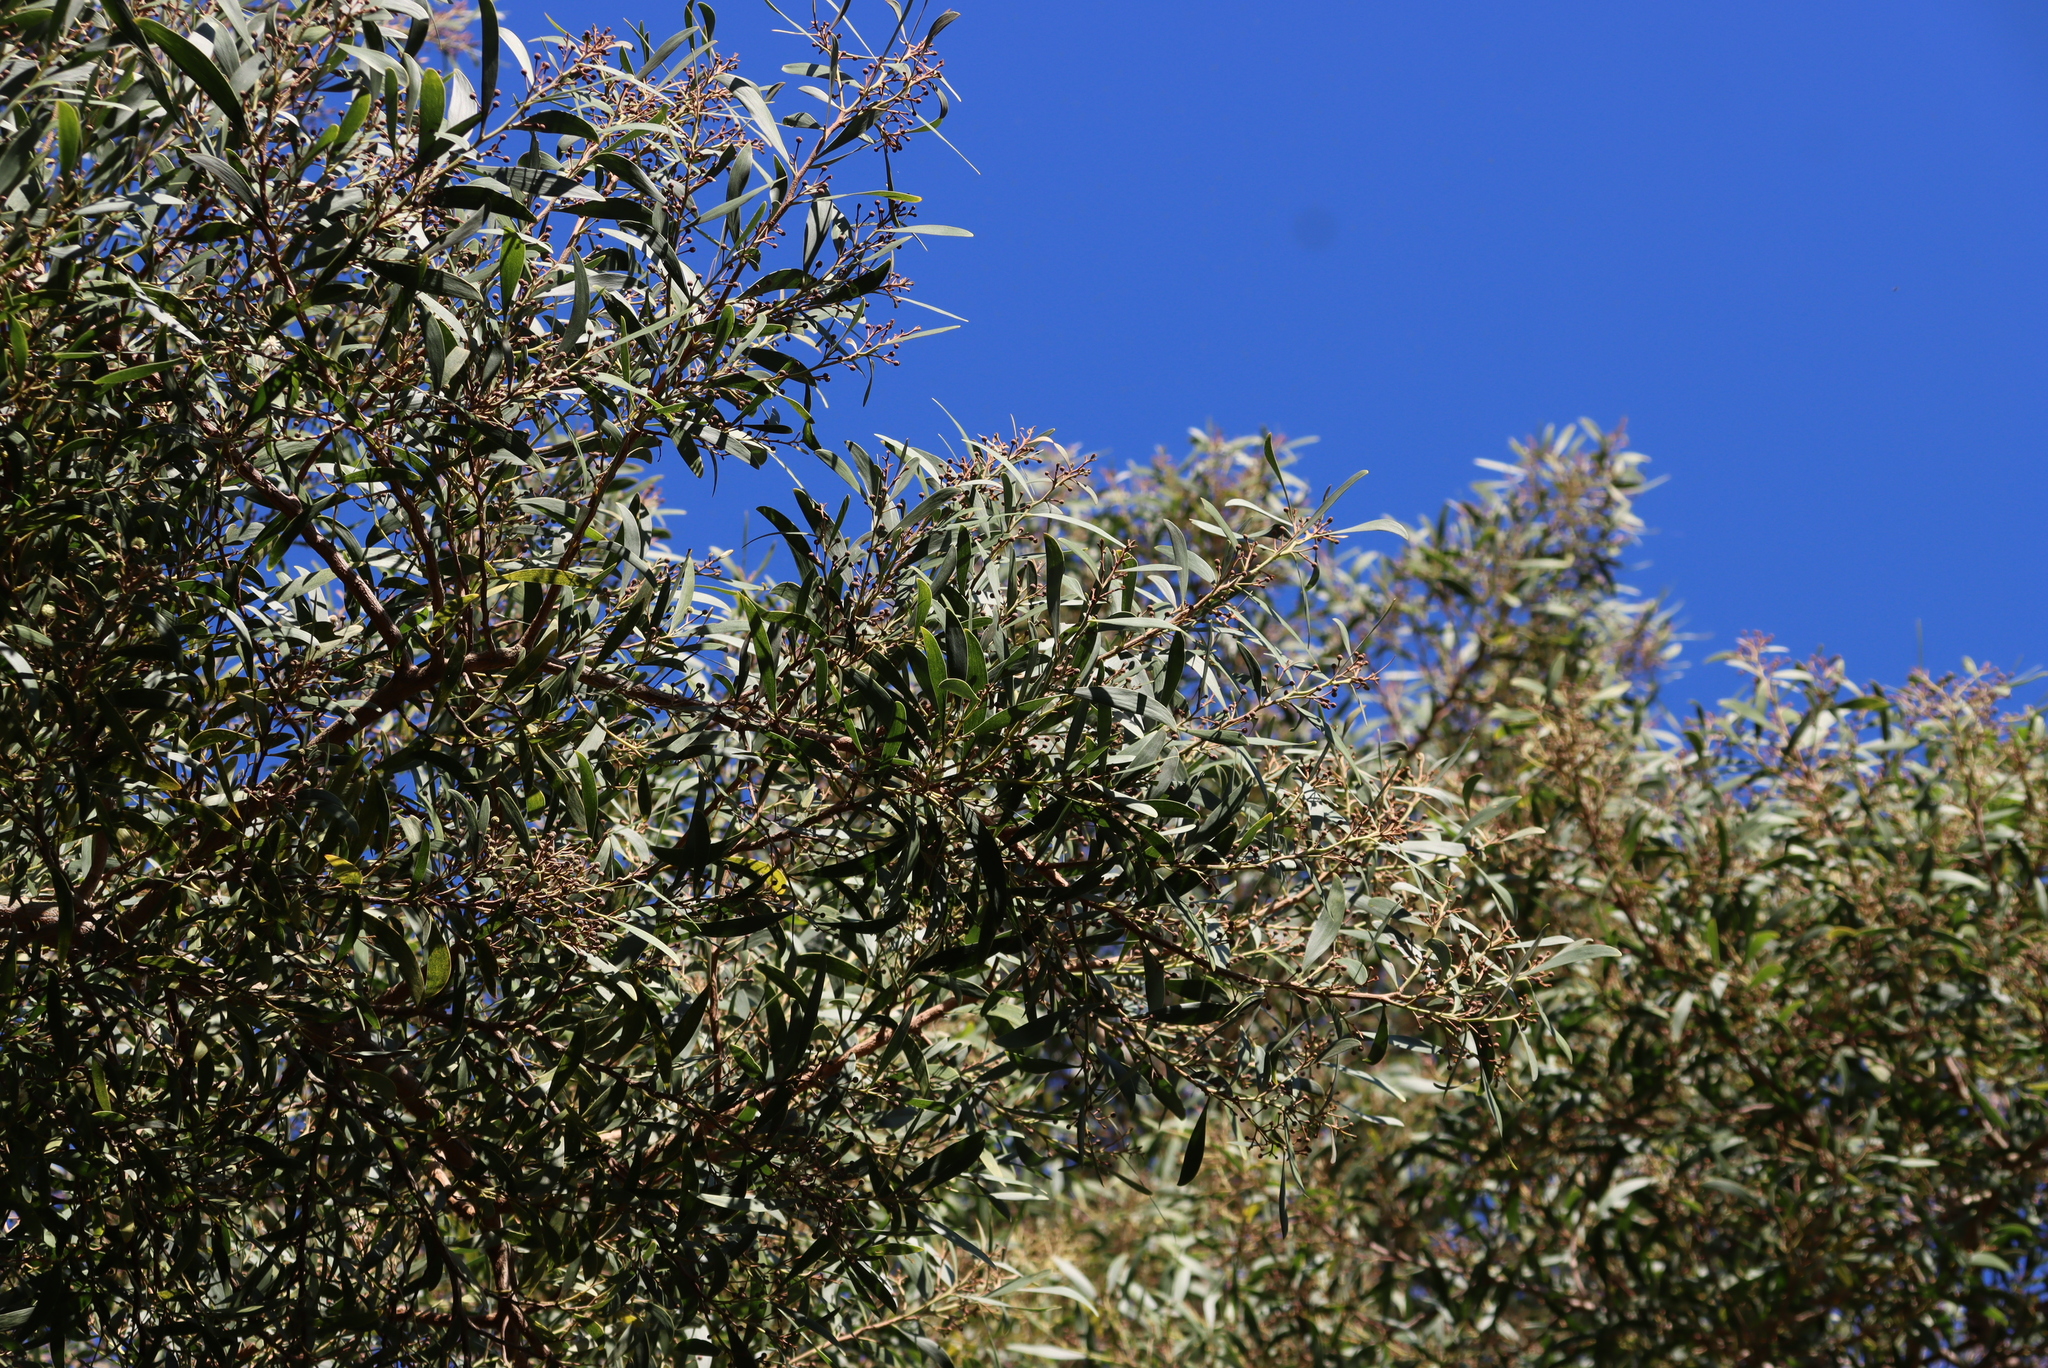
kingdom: Plantae
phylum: Tracheophyta
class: Magnoliopsida
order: Fabales
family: Fabaceae
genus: Acacia
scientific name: Acacia melanoxylon
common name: Blackwood
